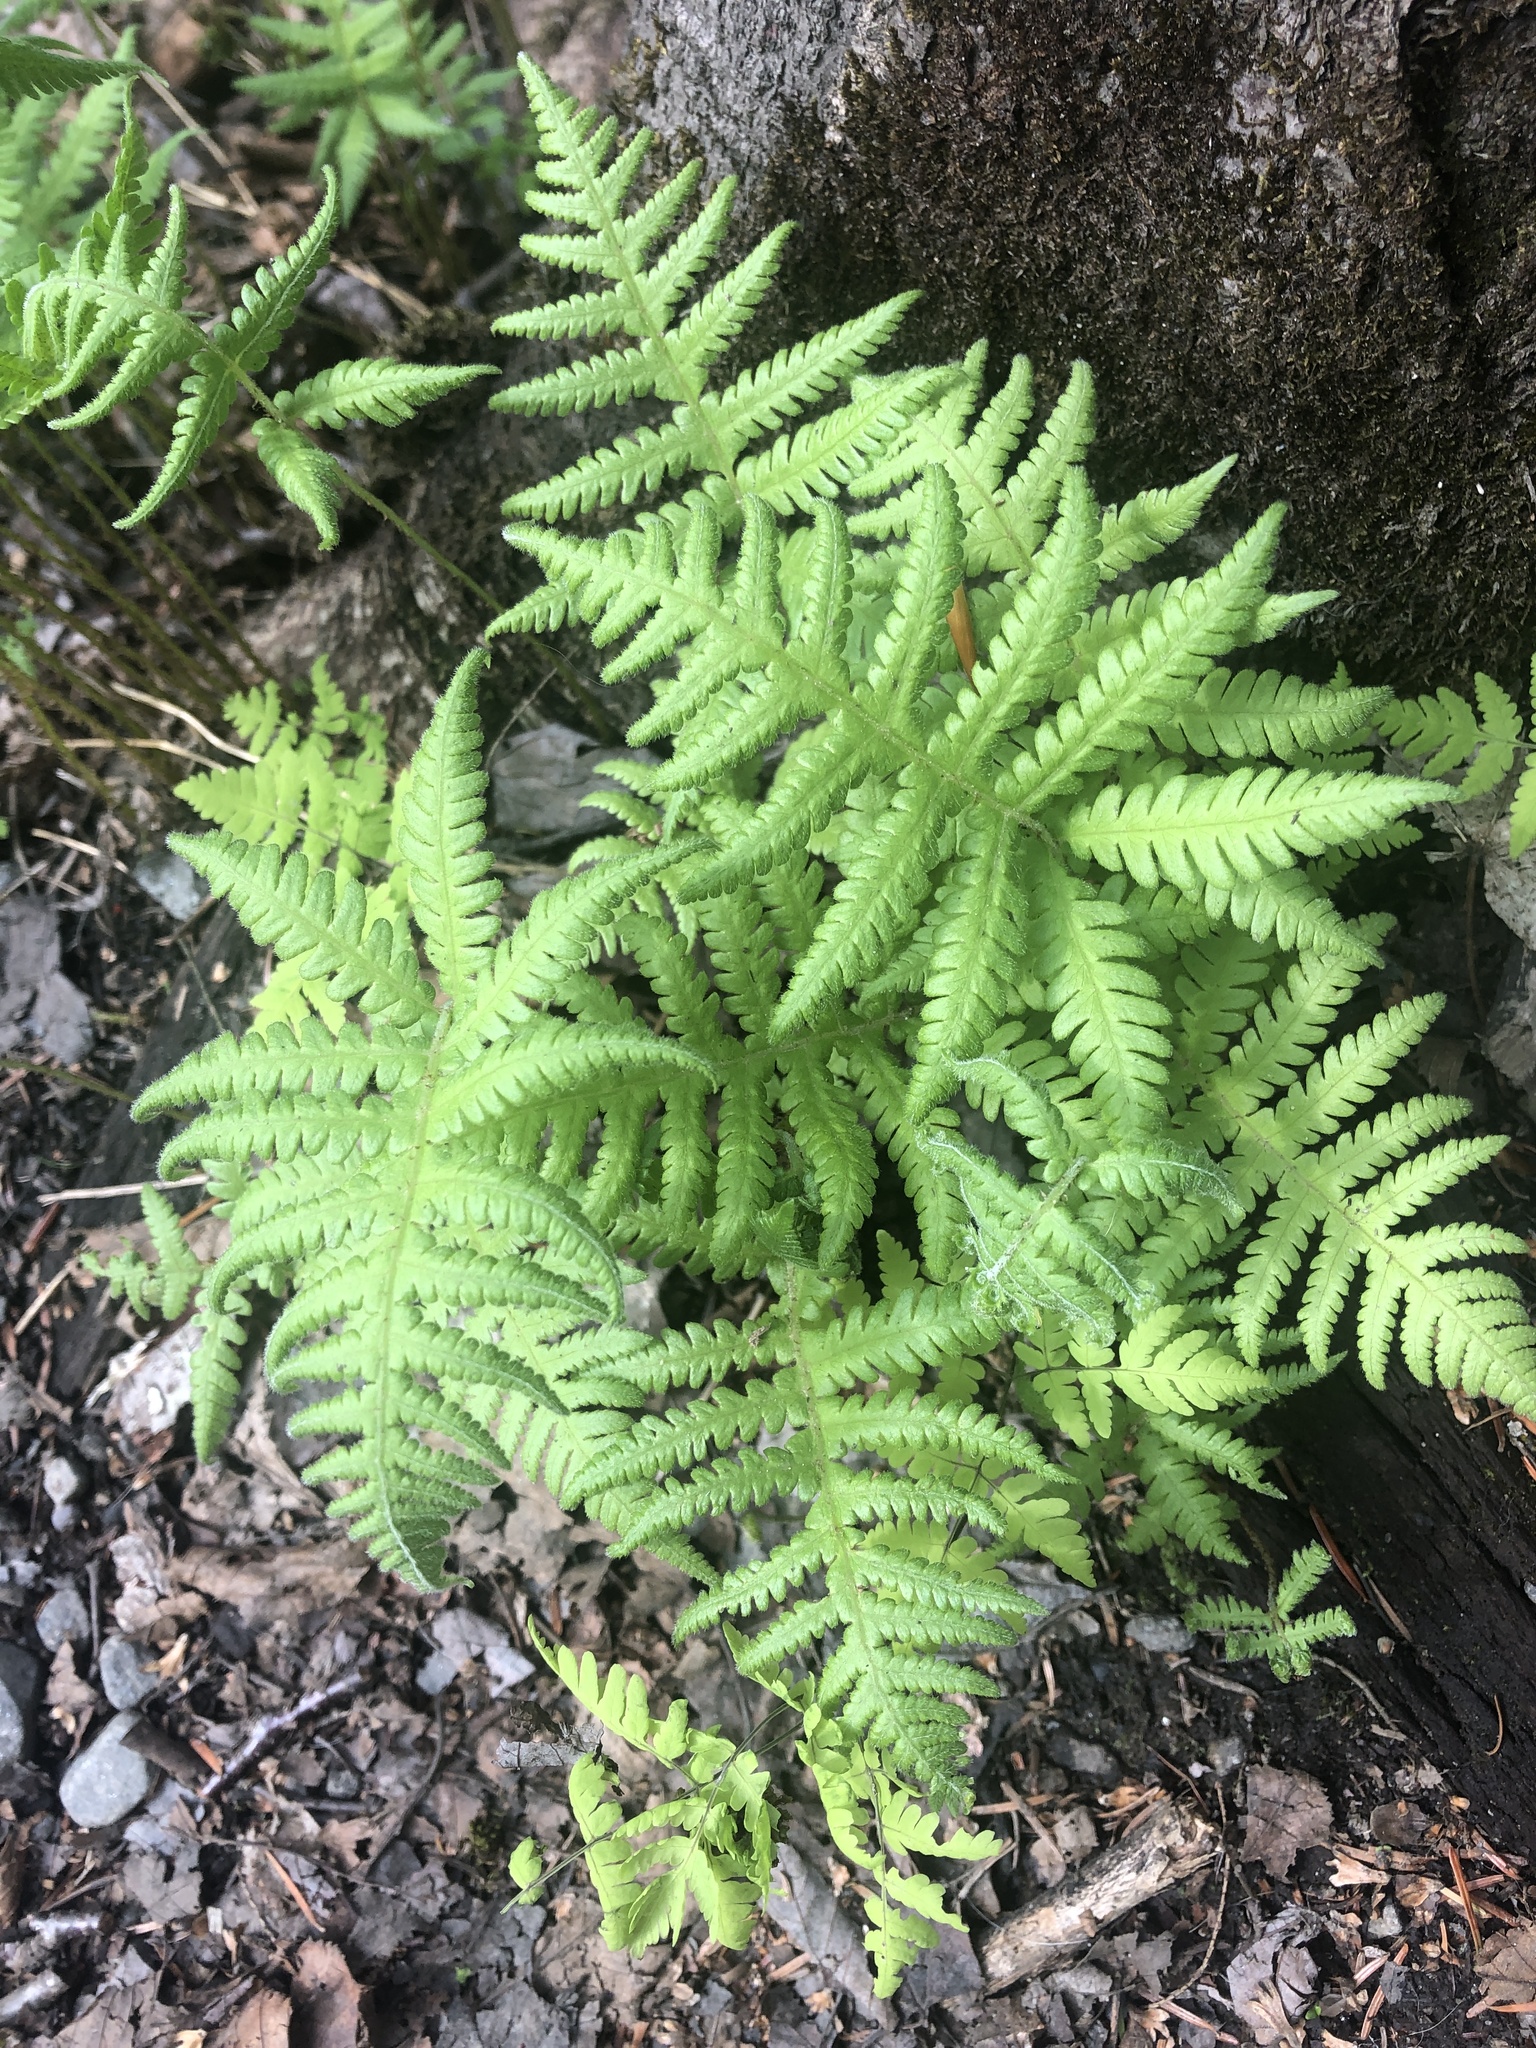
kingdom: Plantae
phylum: Tracheophyta
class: Polypodiopsida
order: Polypodiales
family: Thelypteridaceae
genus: Phegopteris
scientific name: Phegopteris connectilis
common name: Beech fern
